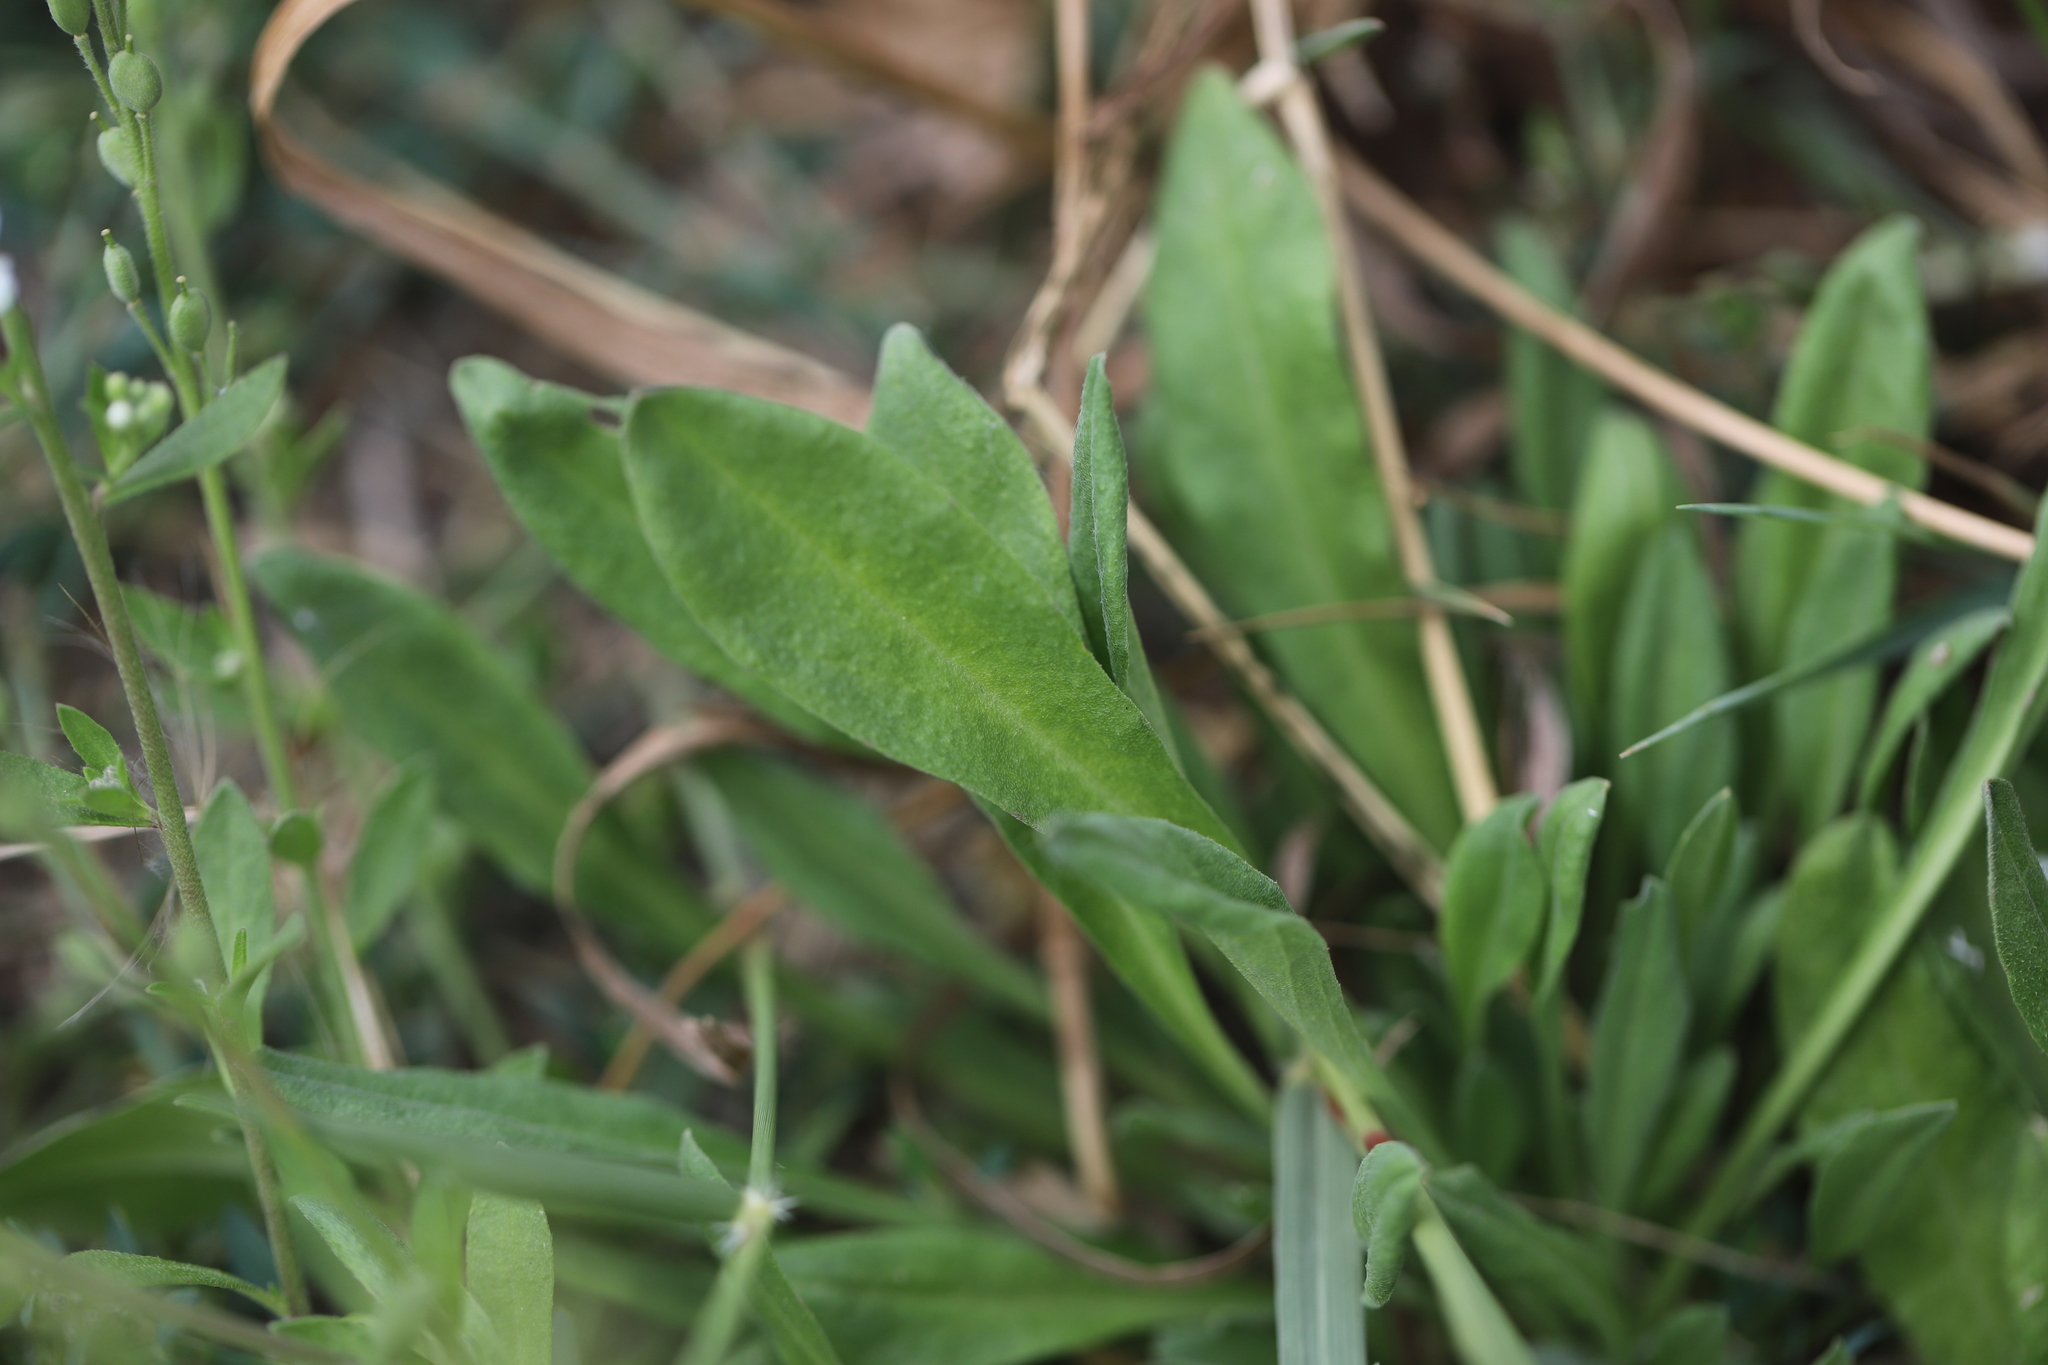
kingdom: Plantae
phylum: Tracheophyta
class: Magnoliopsida
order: Brassicales
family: Brassicaceae
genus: Berteroa
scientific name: Berteroa incana
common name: Hoary alison
